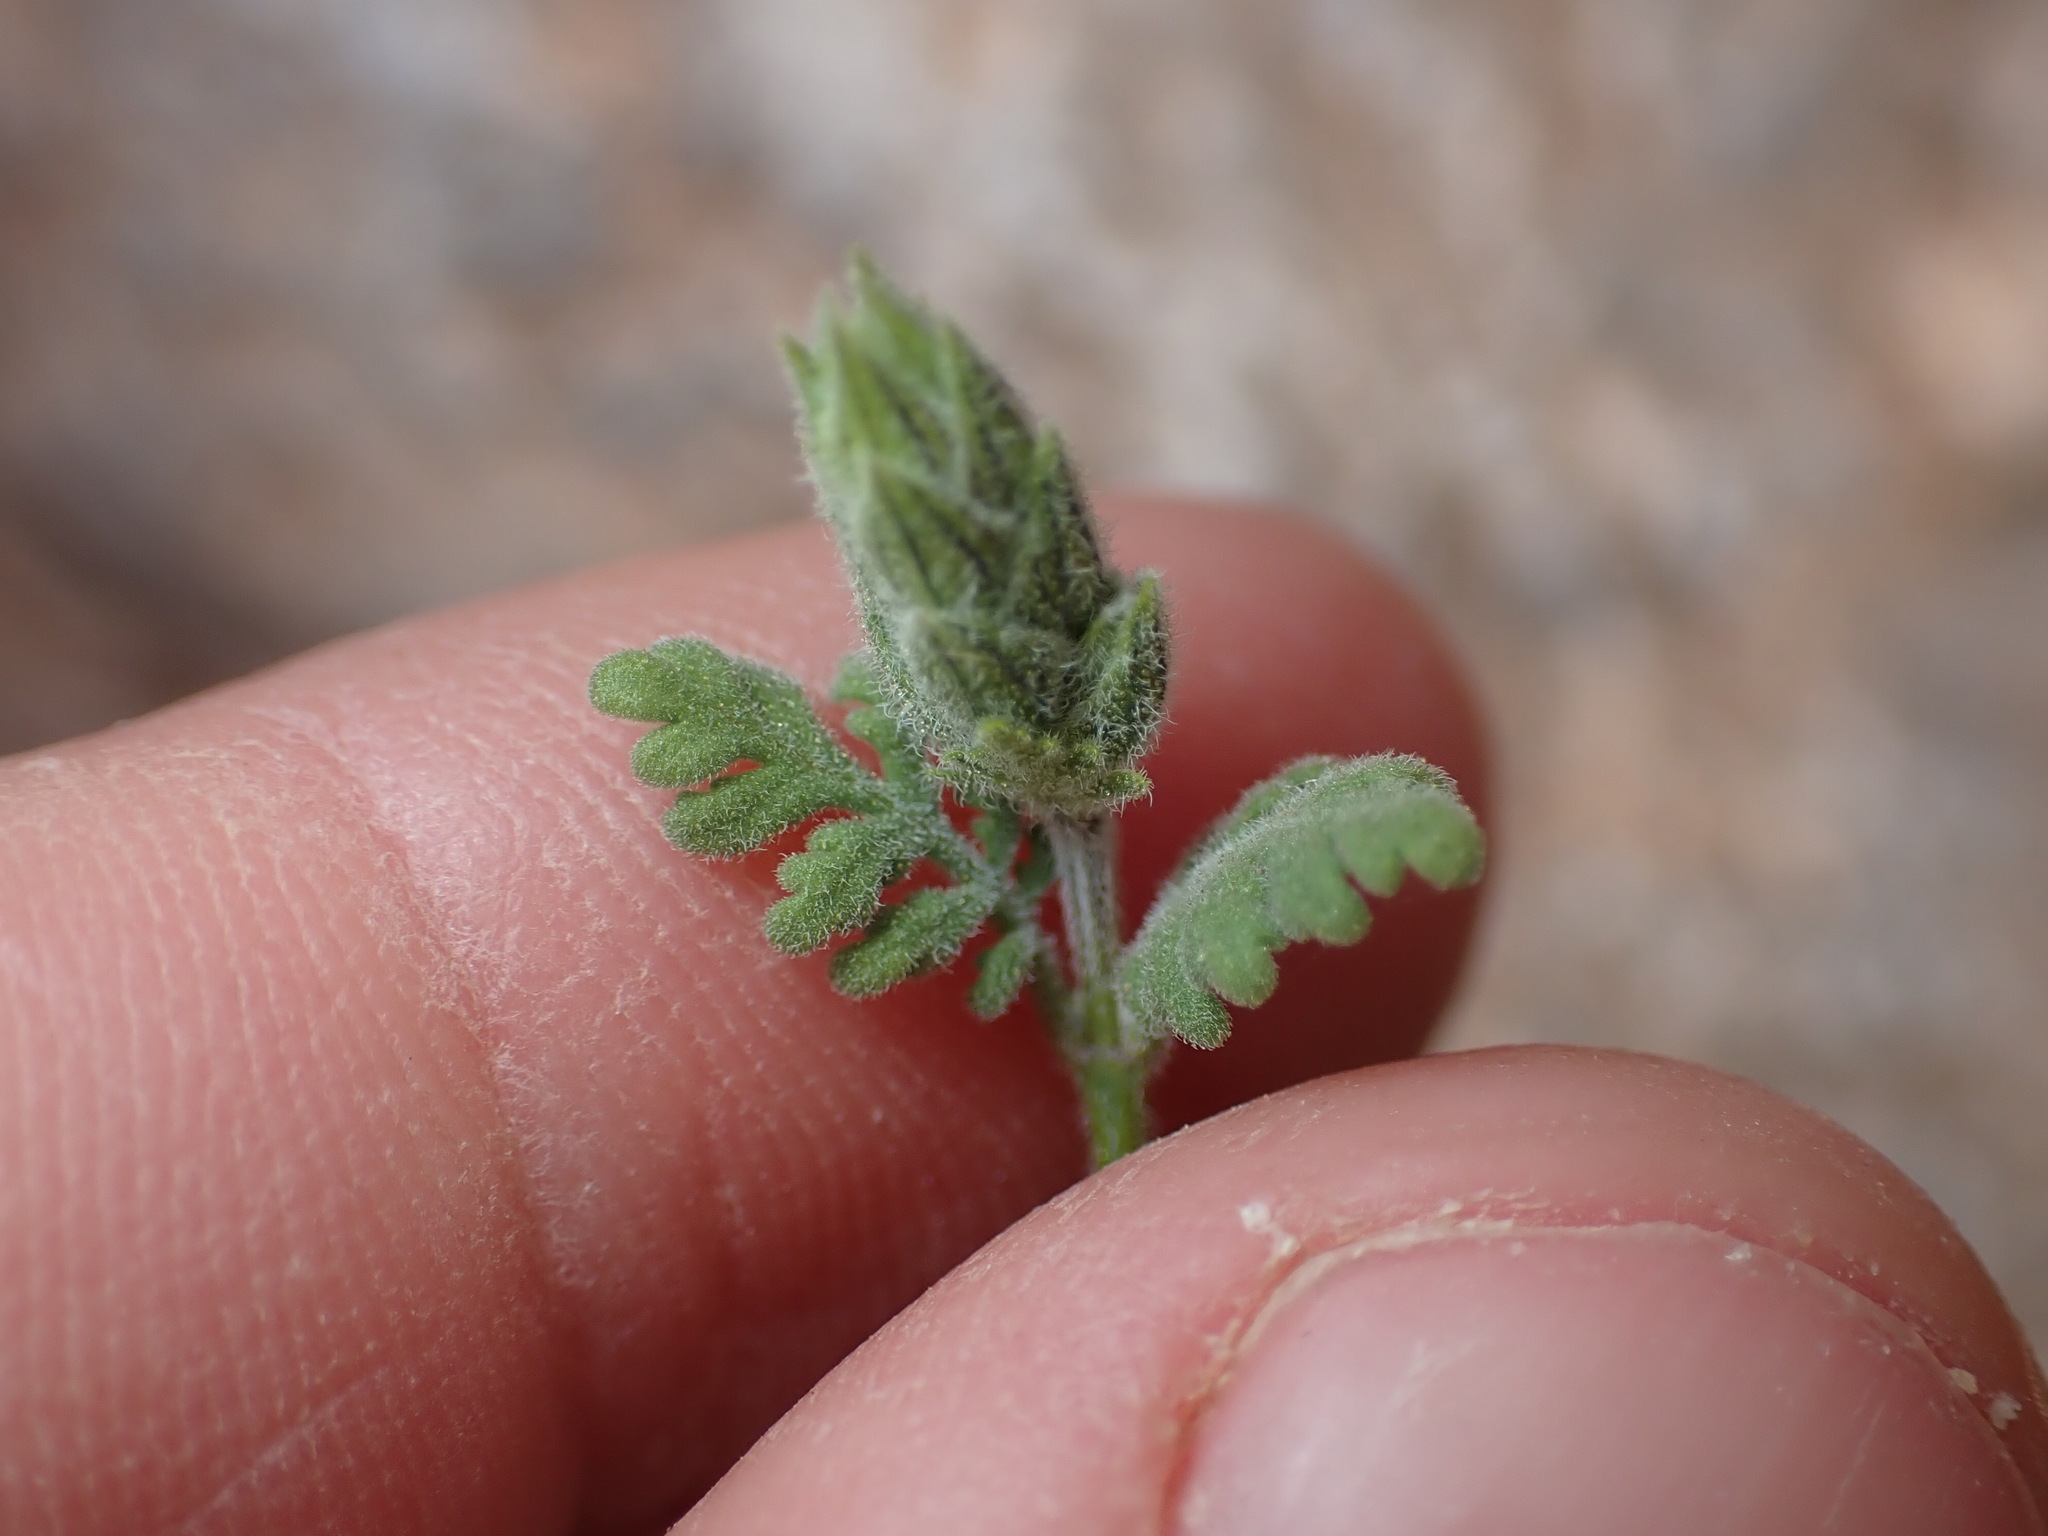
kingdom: Plantae
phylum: Tracheophyta
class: Magnoliopsida
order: Lamiales
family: Lamiaceae
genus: Lavandula
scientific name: Lavandula mairei
